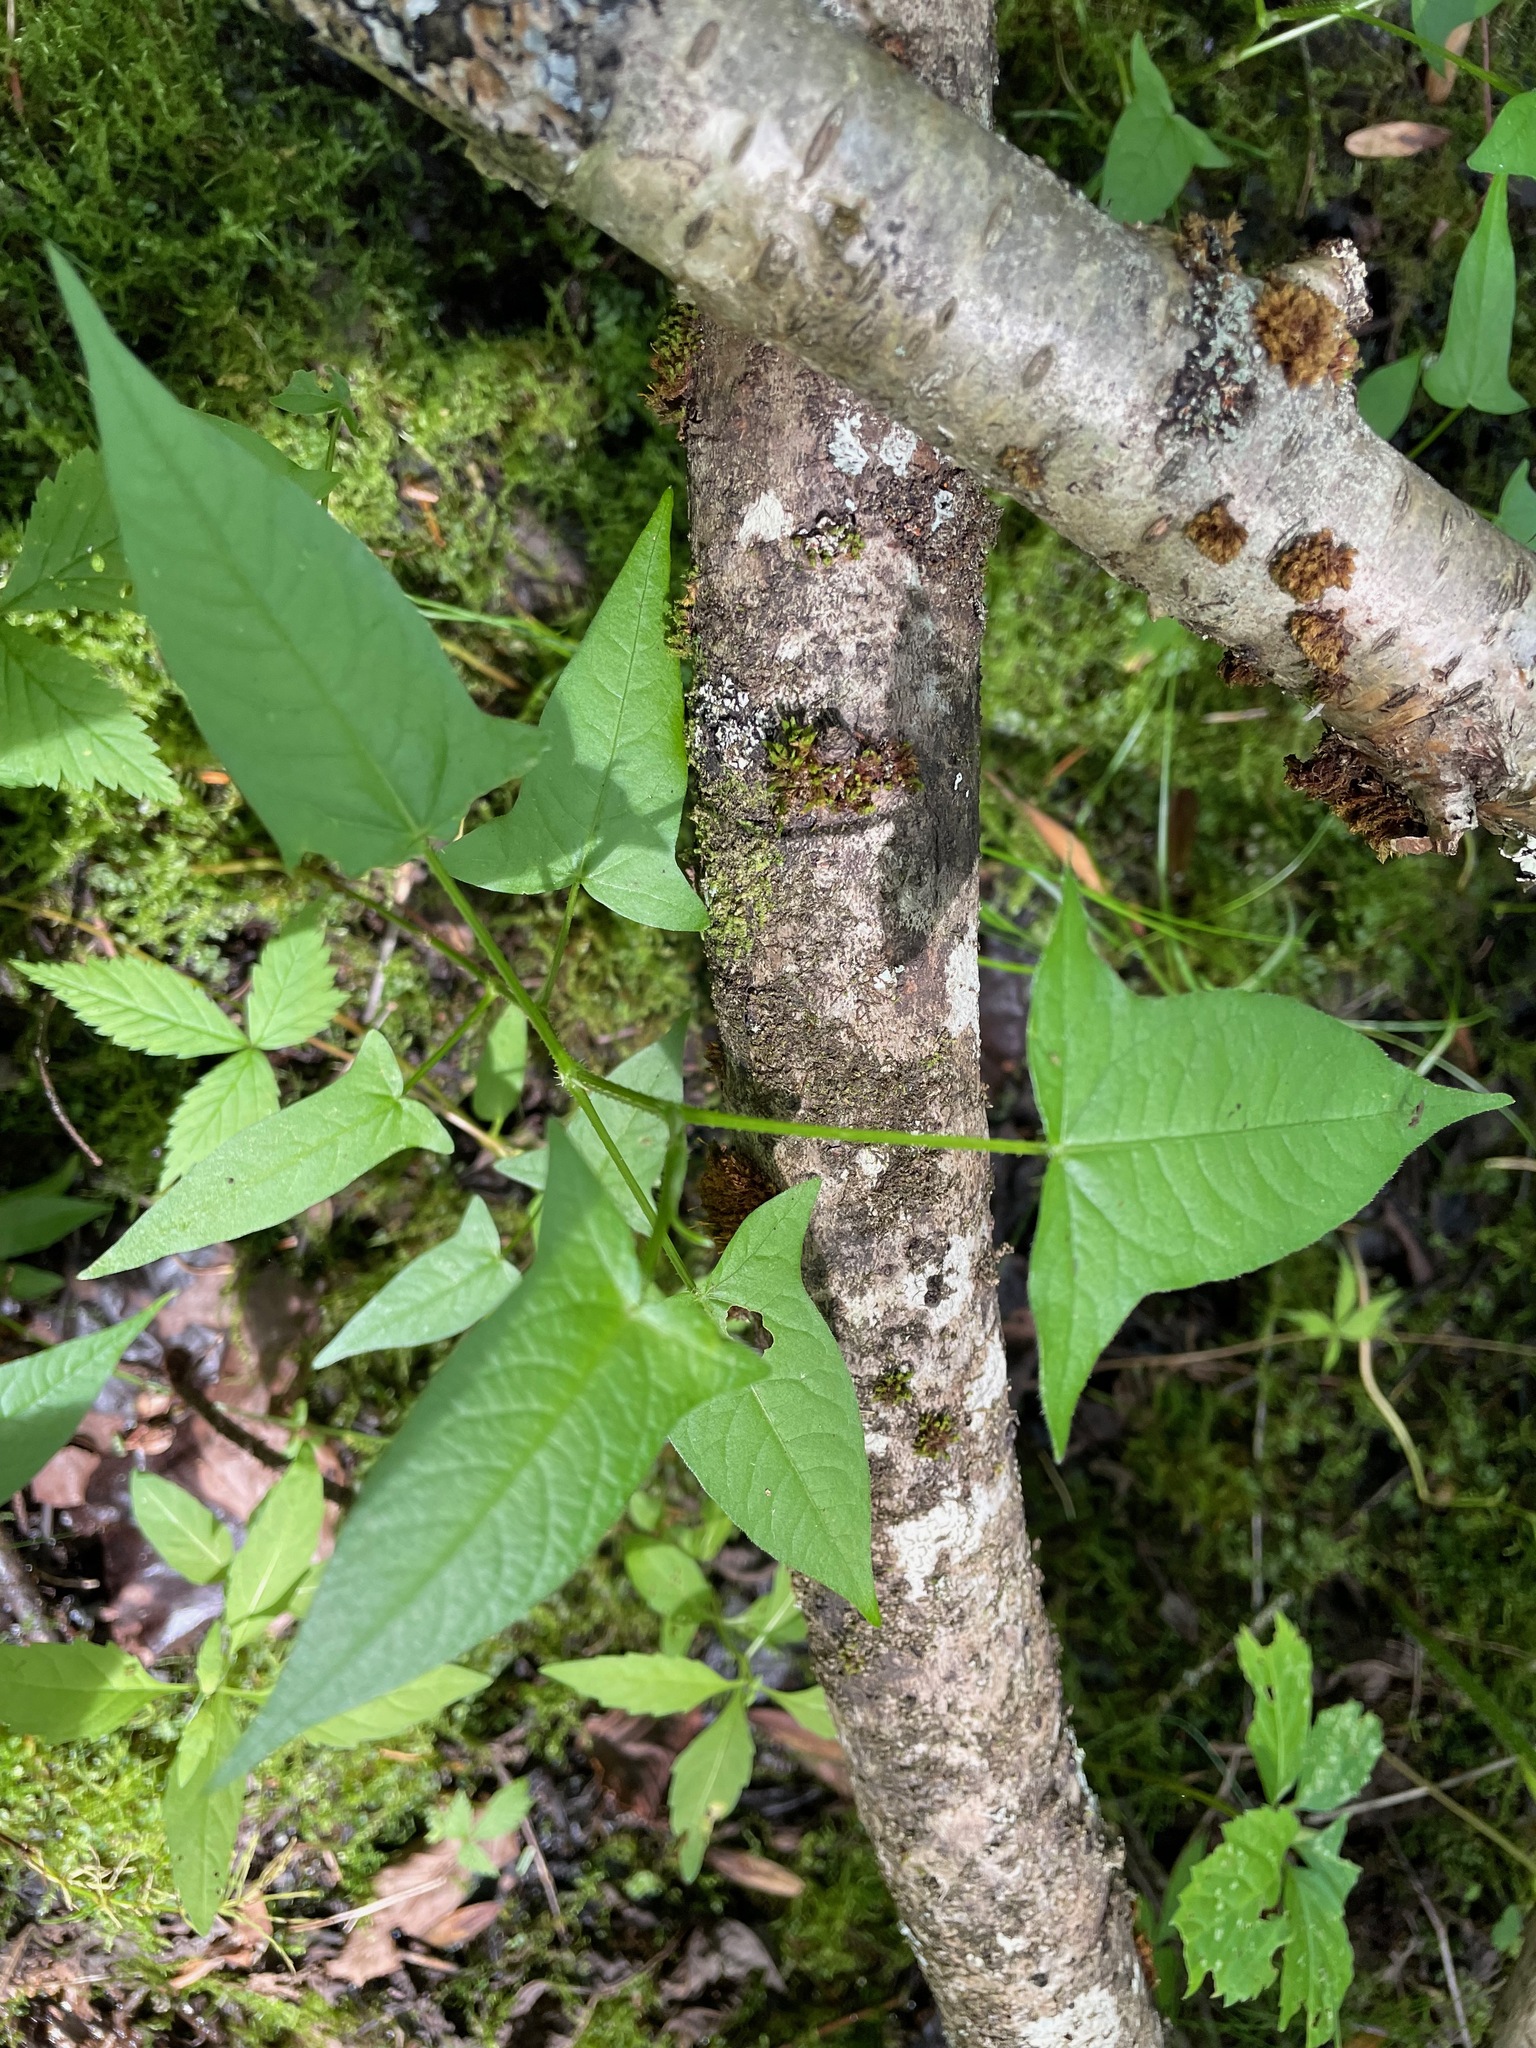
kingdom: Plantae
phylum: Tracheophyta
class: Magnoliopsida
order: Caryophyllales
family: Polygonaceae
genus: Persicaria
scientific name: Persicaria arifolia
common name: Halberd-leaved tear-thumb
